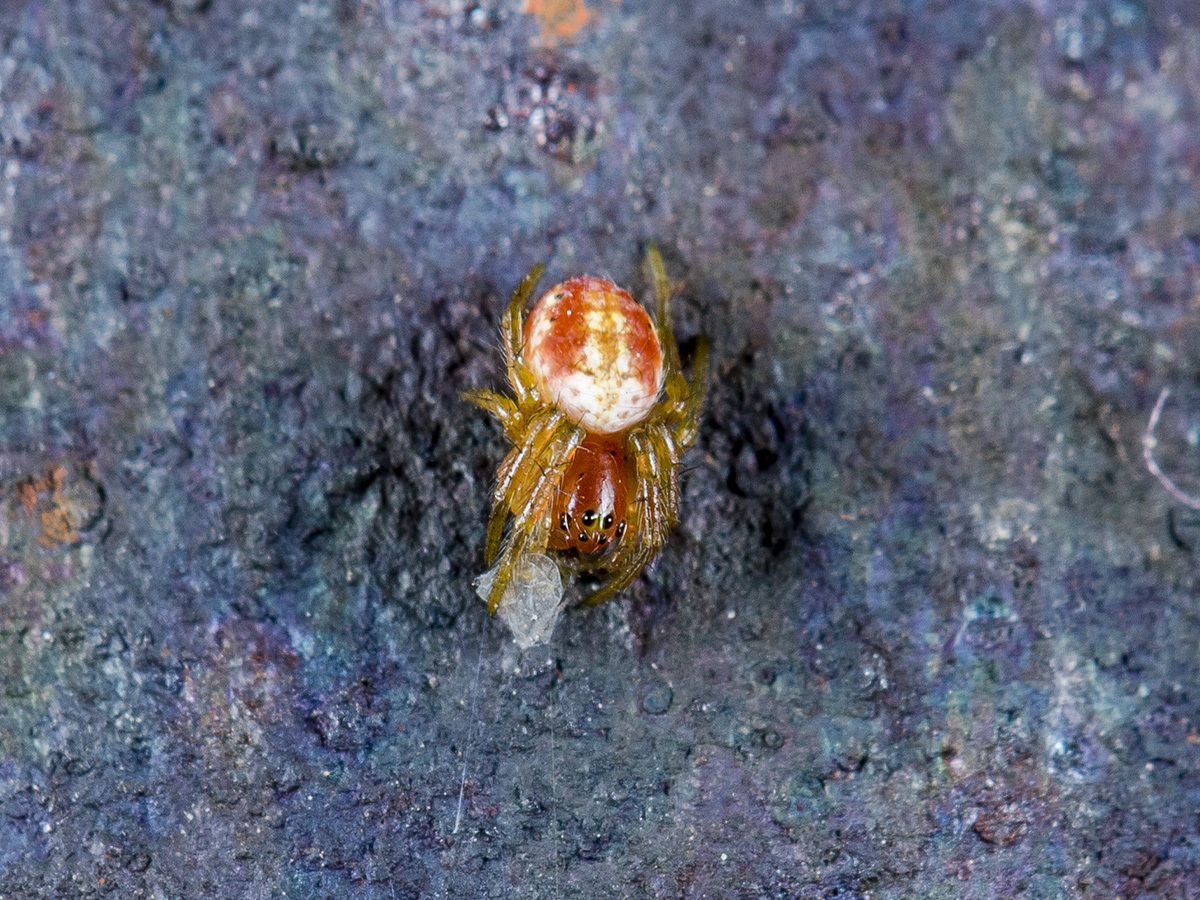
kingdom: Animalia
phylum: Arthropoda
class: Arachnida
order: Araneae
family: Araneidae
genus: Araniella
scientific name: Araniella villanii
